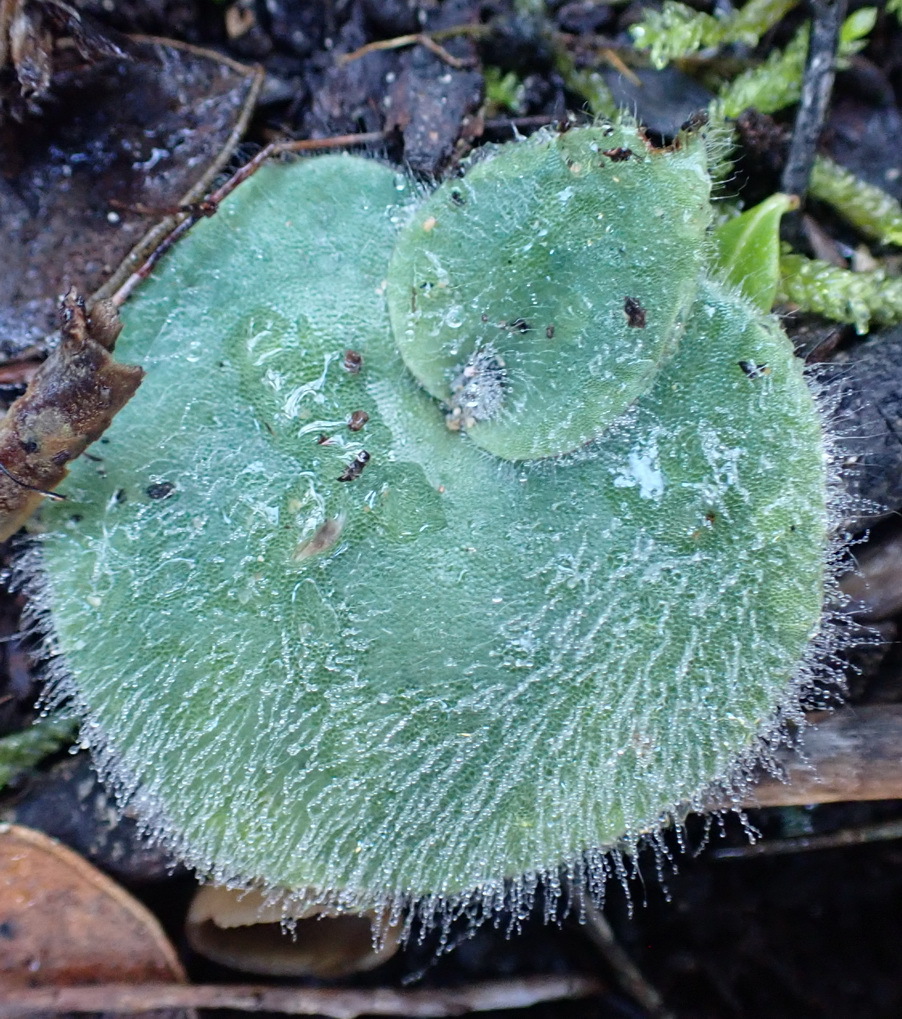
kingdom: Plantae
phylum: Tracheophyta
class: Liliopsida
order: Asparagales
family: Orchidaceae
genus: Holothrix
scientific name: Holothrix villosa
